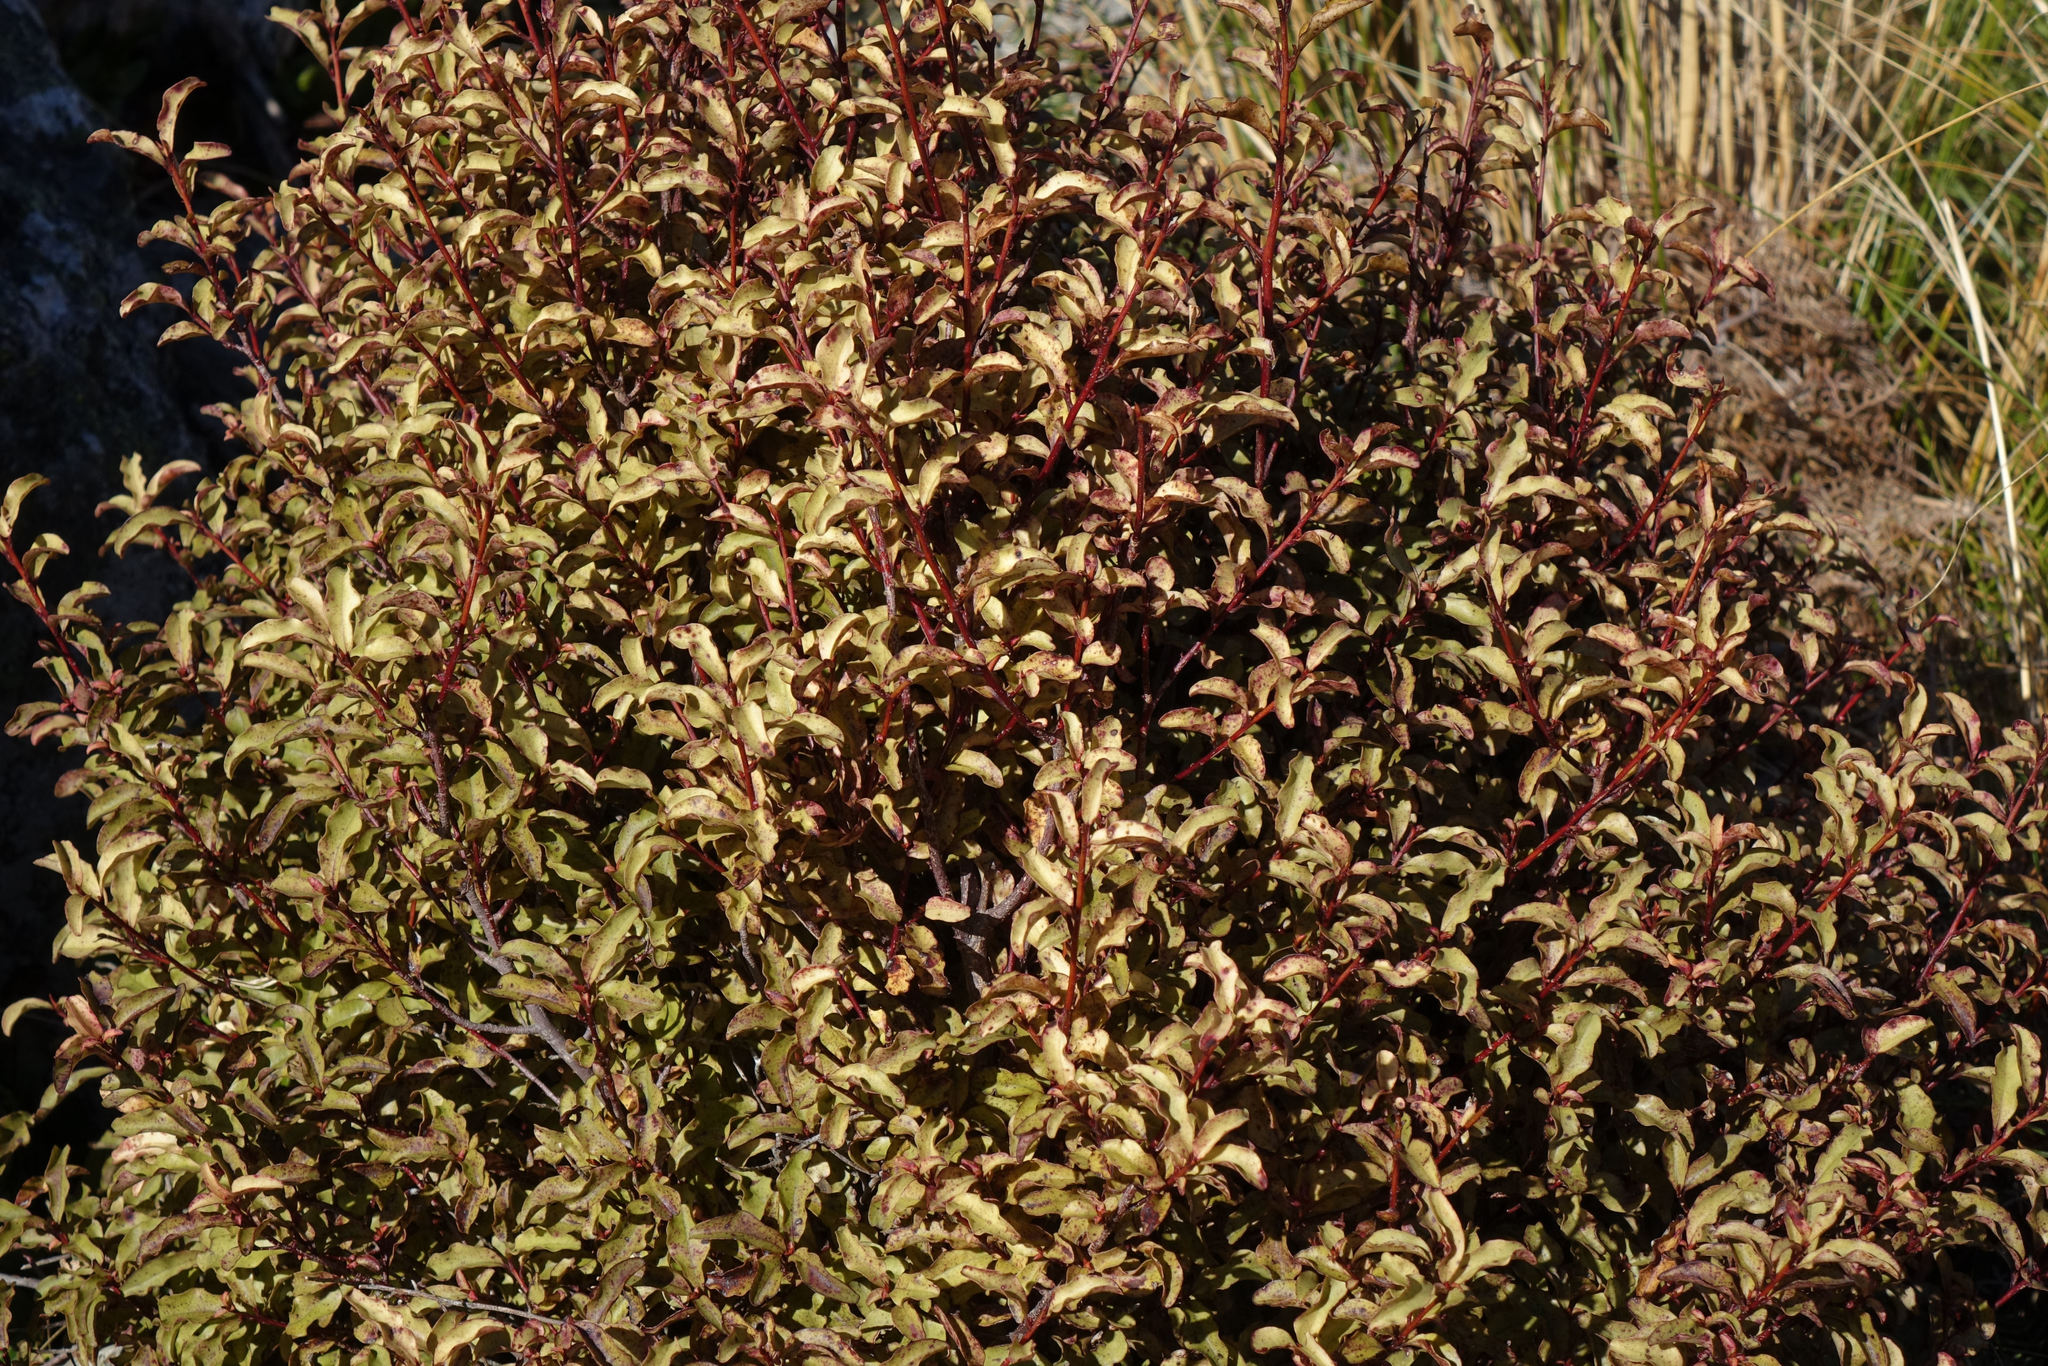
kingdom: Plantae
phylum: Tracheophyta
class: Magnoliopsida
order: Ericales
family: Primulaceae
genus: Myrsine
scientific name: Myrsine australis
